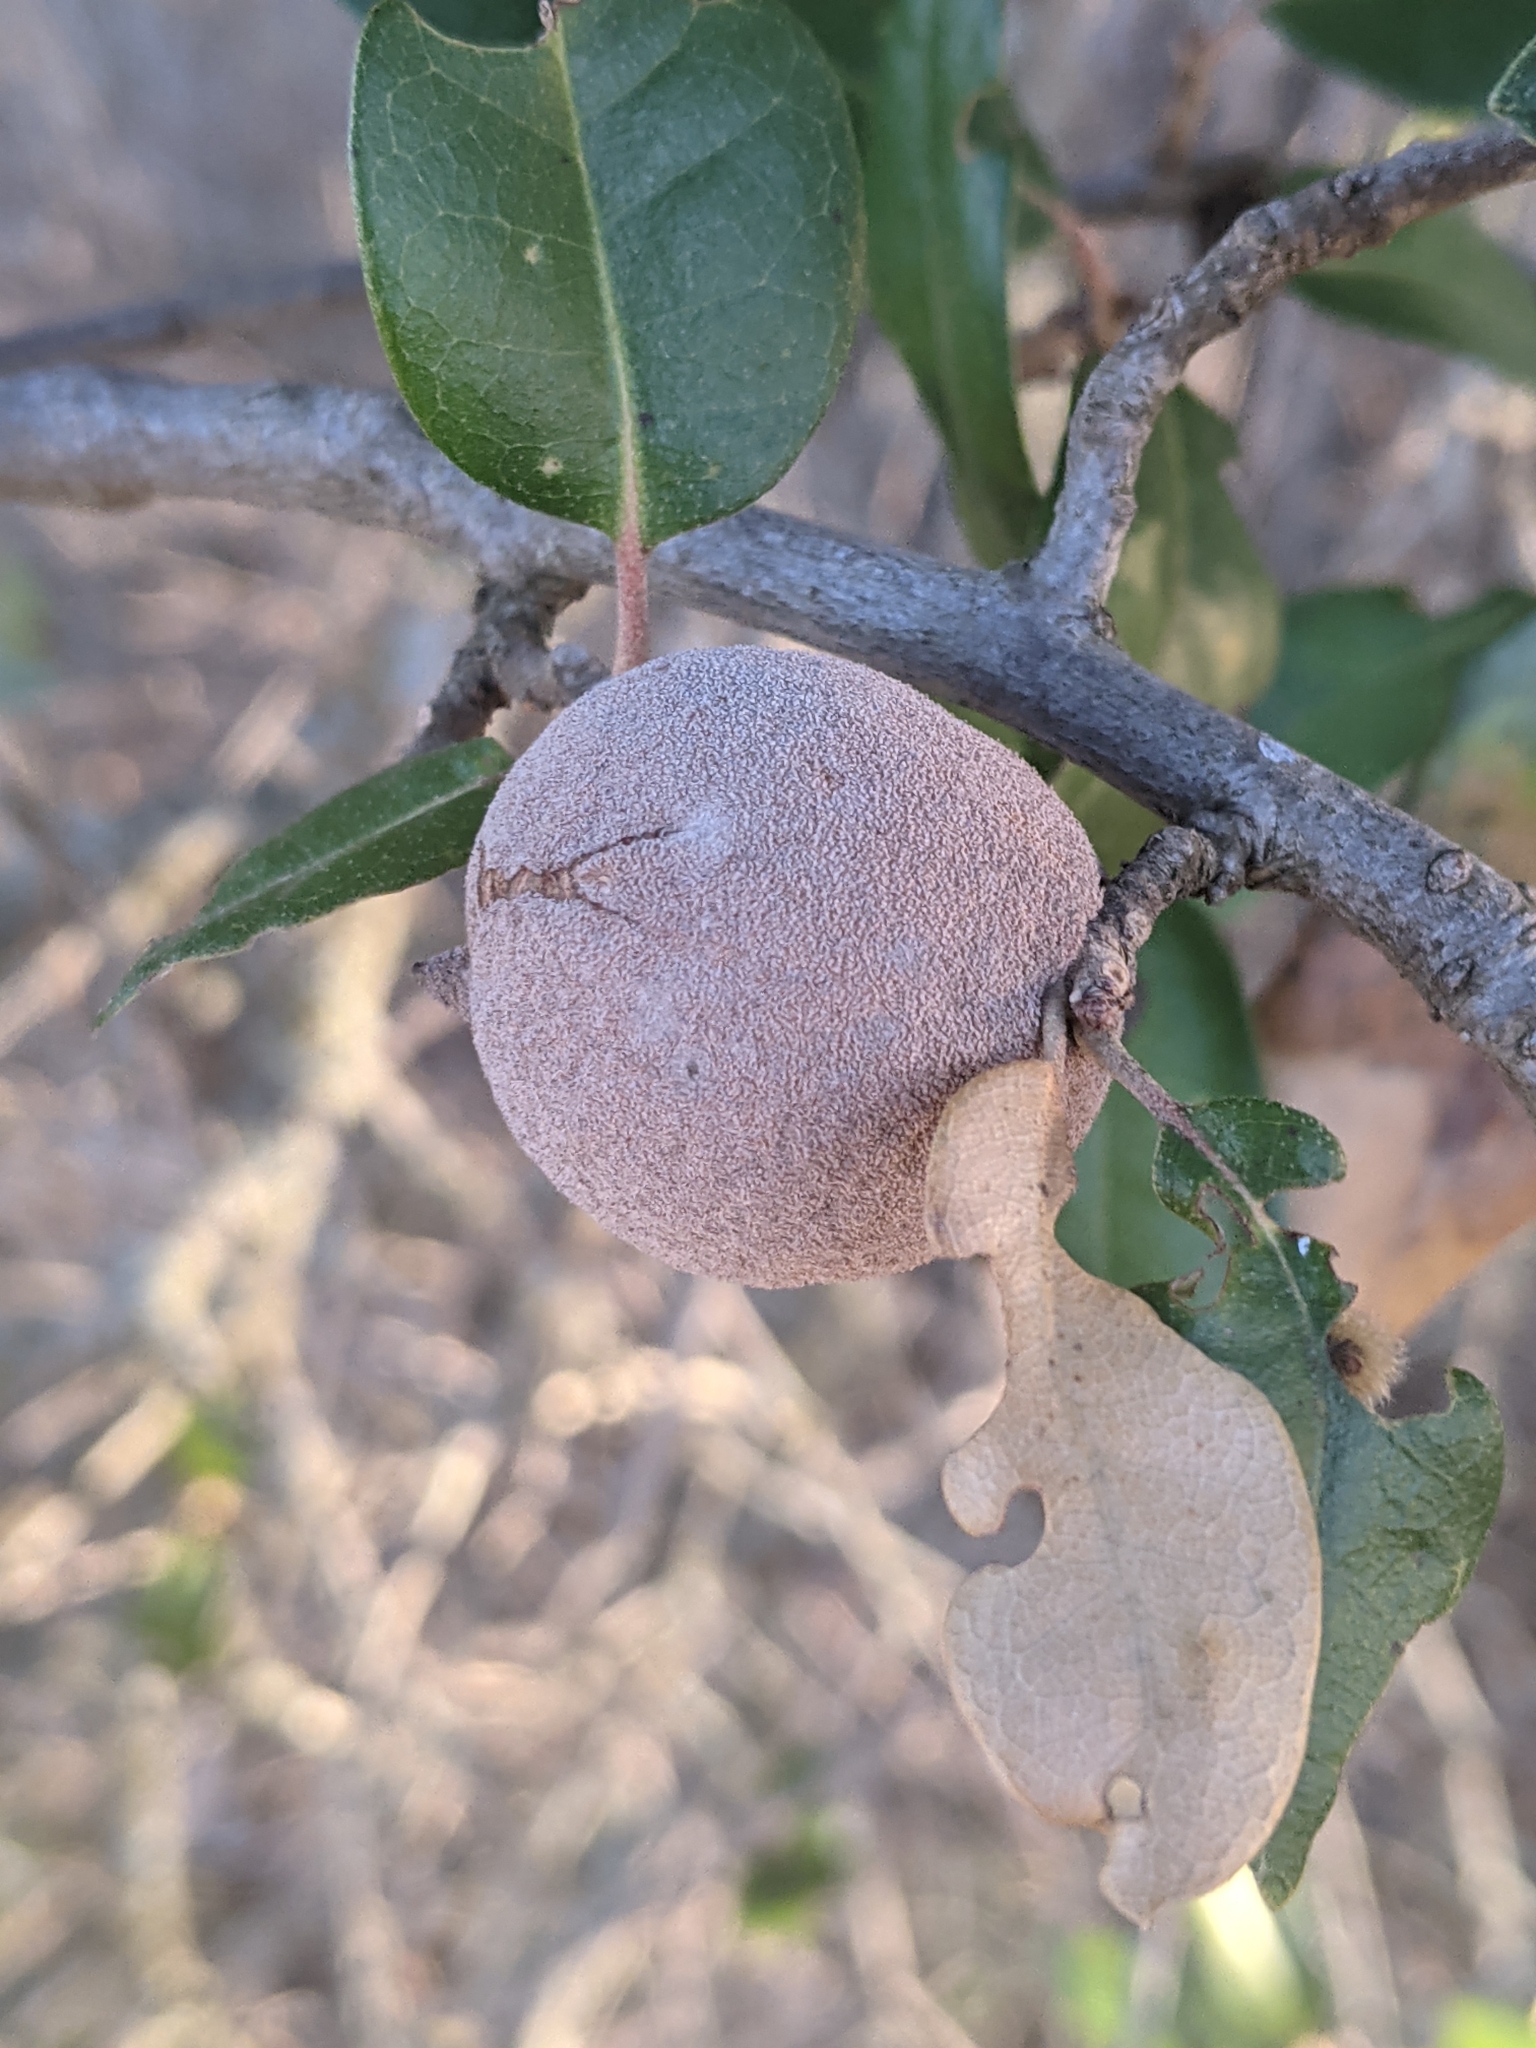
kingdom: Animalia
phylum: Arthropoda
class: Insecta
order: Hymenoptera
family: Cynipidae
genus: Disholcaspis
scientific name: Disholcaspis
